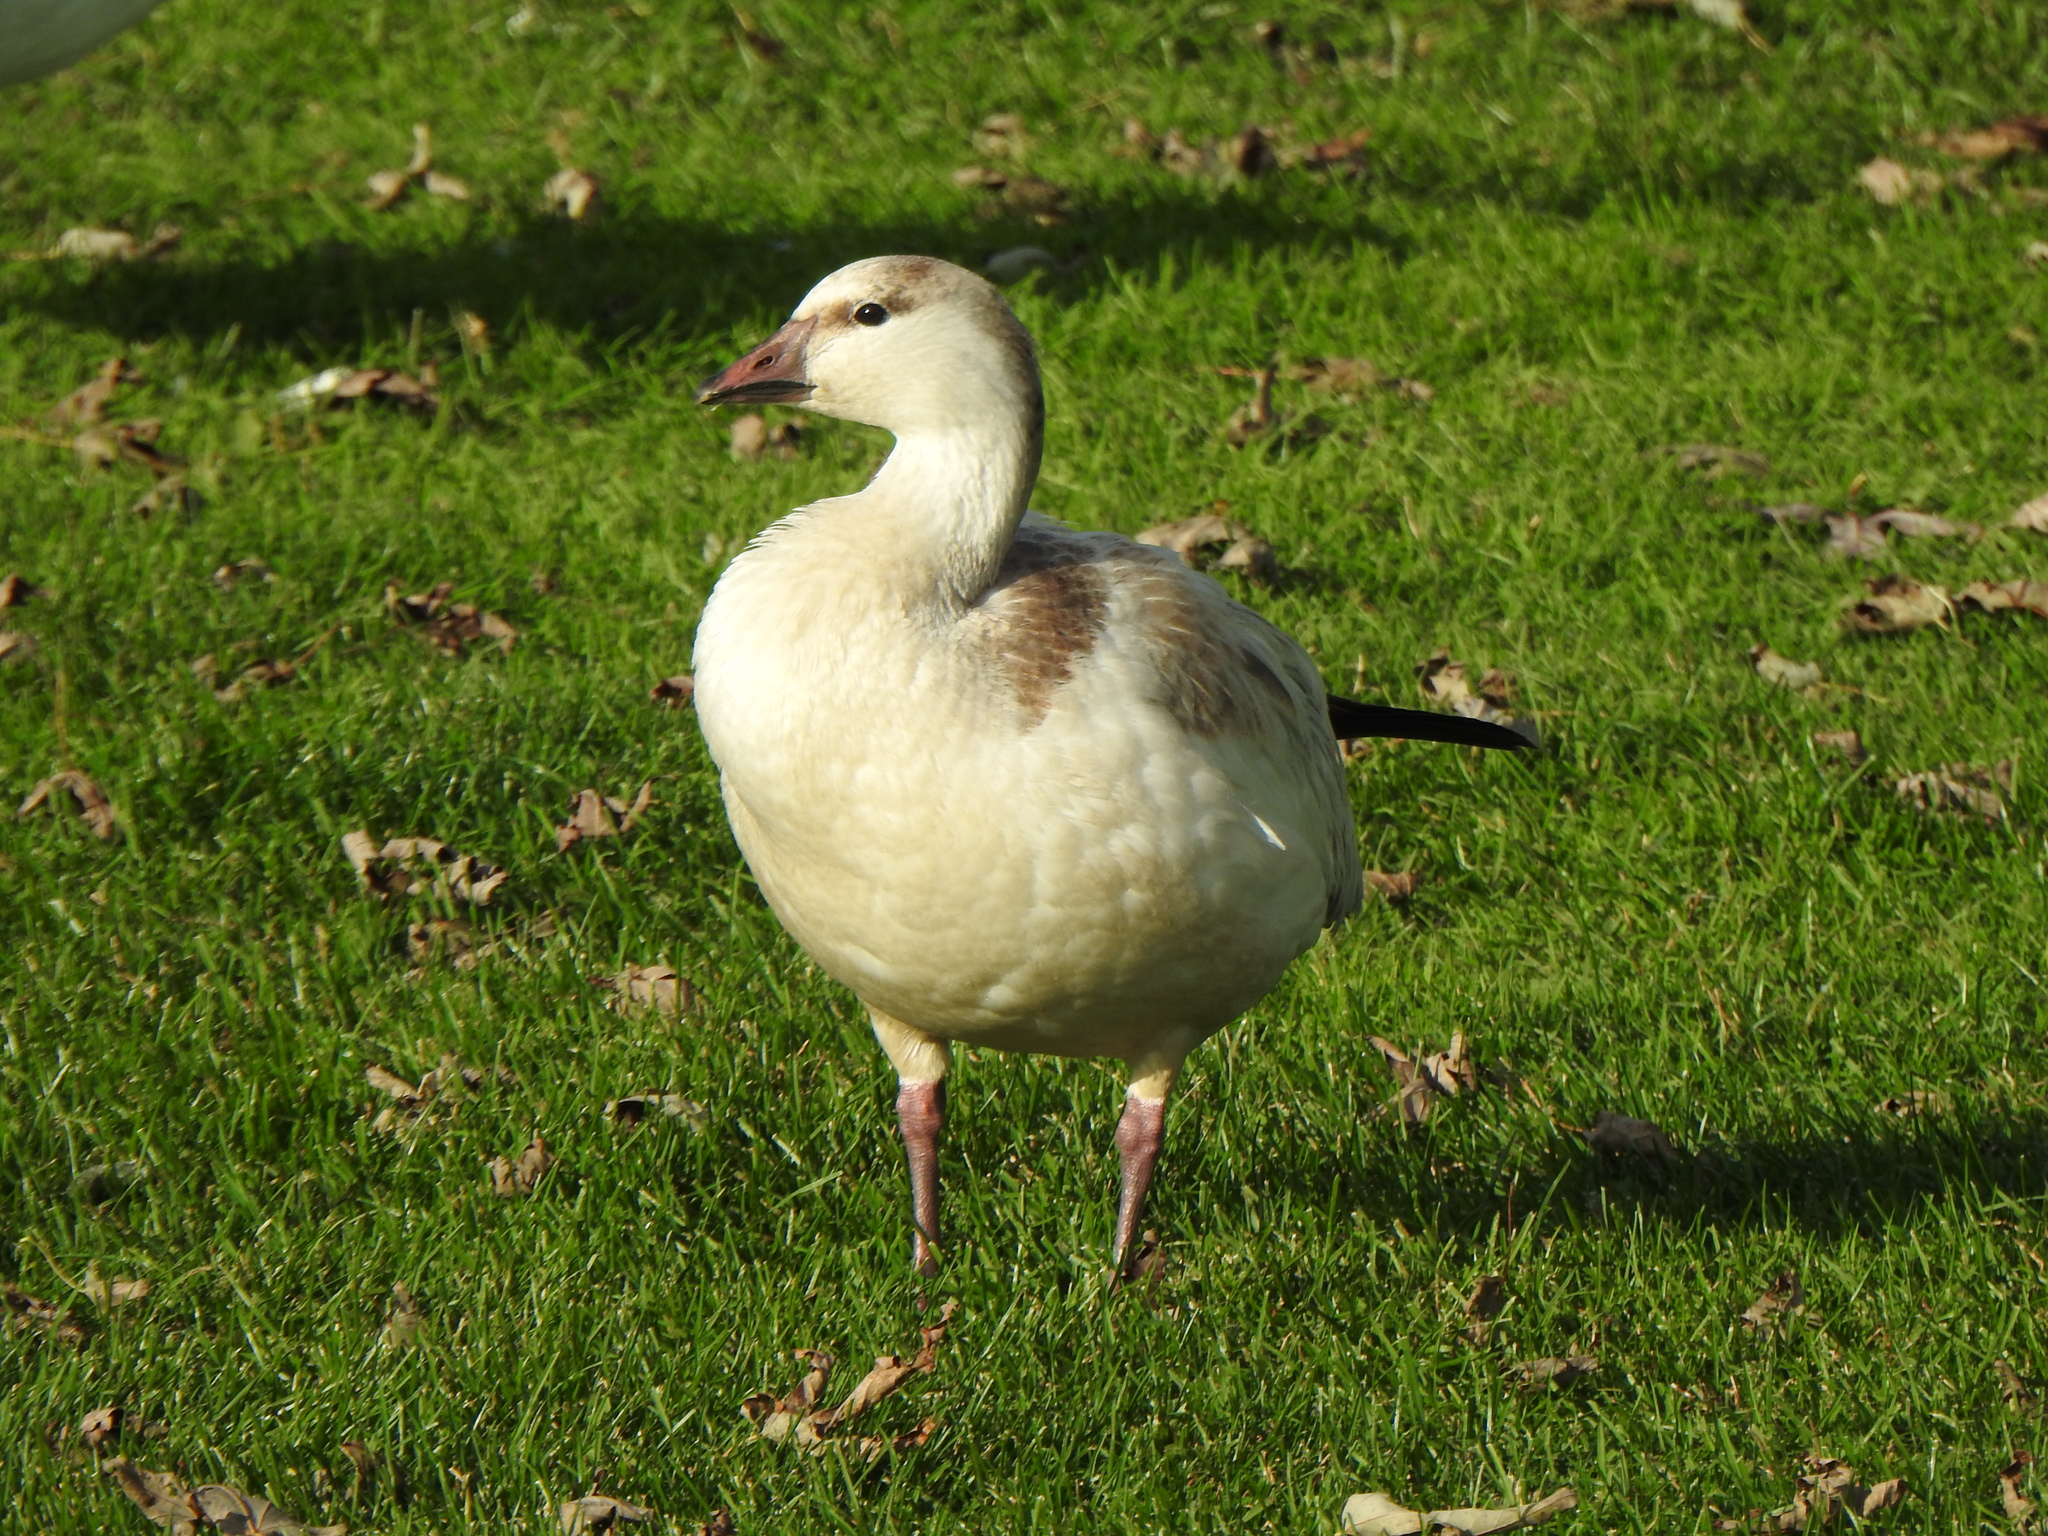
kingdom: Animalia
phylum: Chordata
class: Aves
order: Anseriformes
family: Anatidae
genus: Anser
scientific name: Anser rossii
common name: Ross's goose
